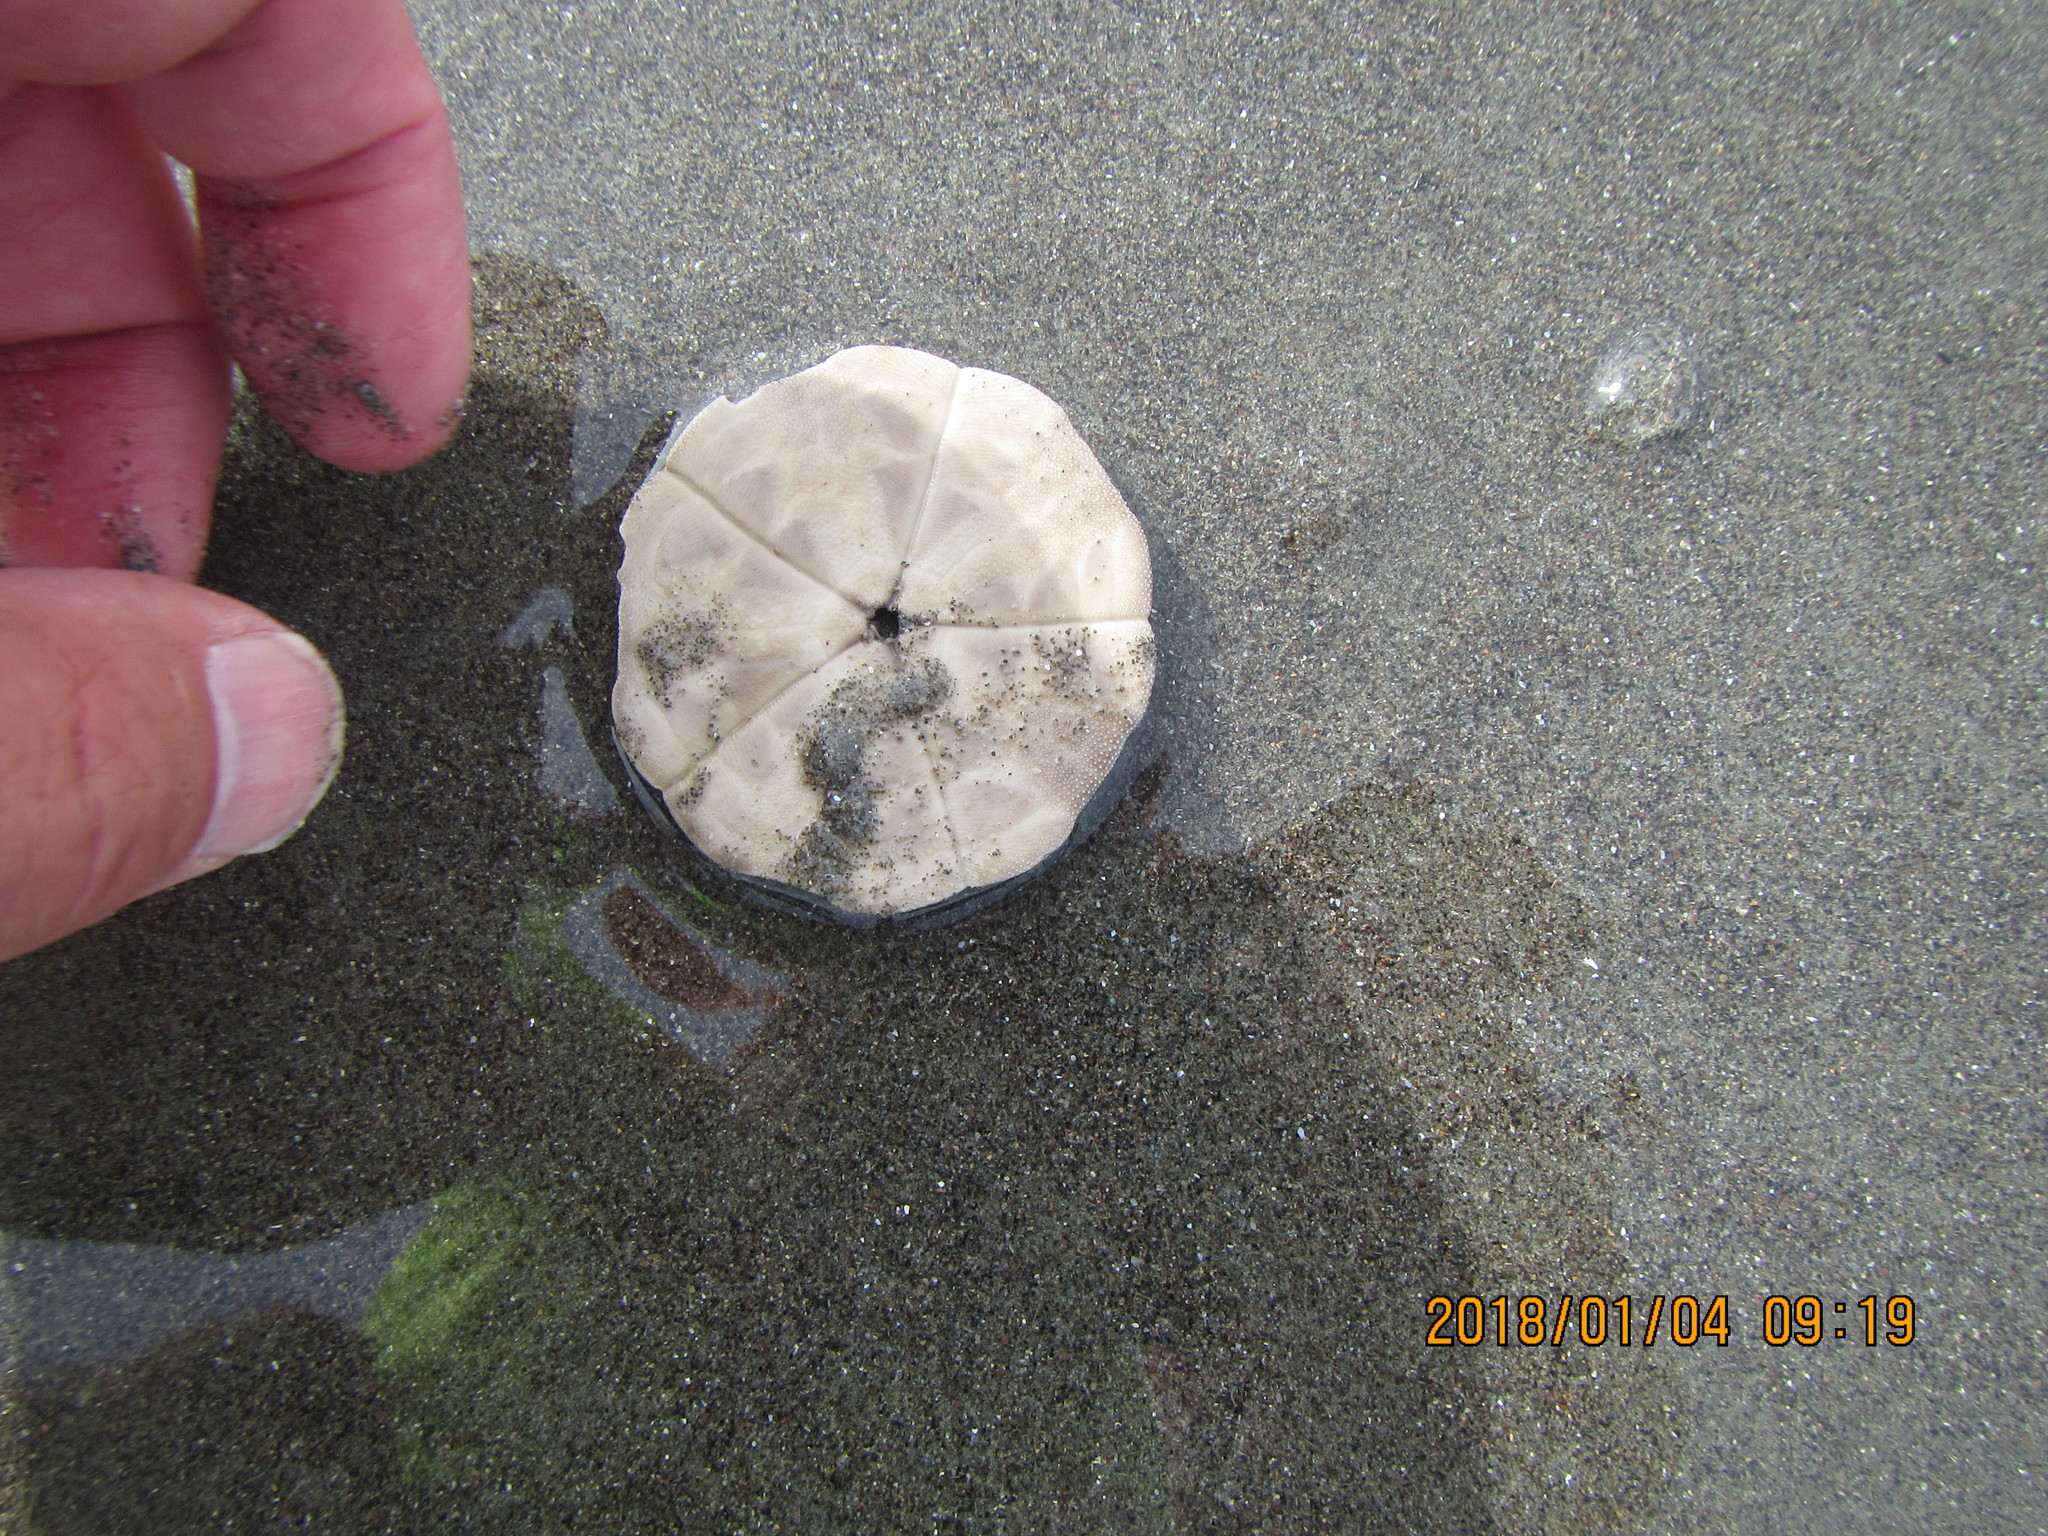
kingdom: Animalia
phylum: Echinodermata
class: Echinoidea
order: Clypeasteroida
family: Clypeasteridae
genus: Fellaster
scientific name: Fellaster zelandiae
